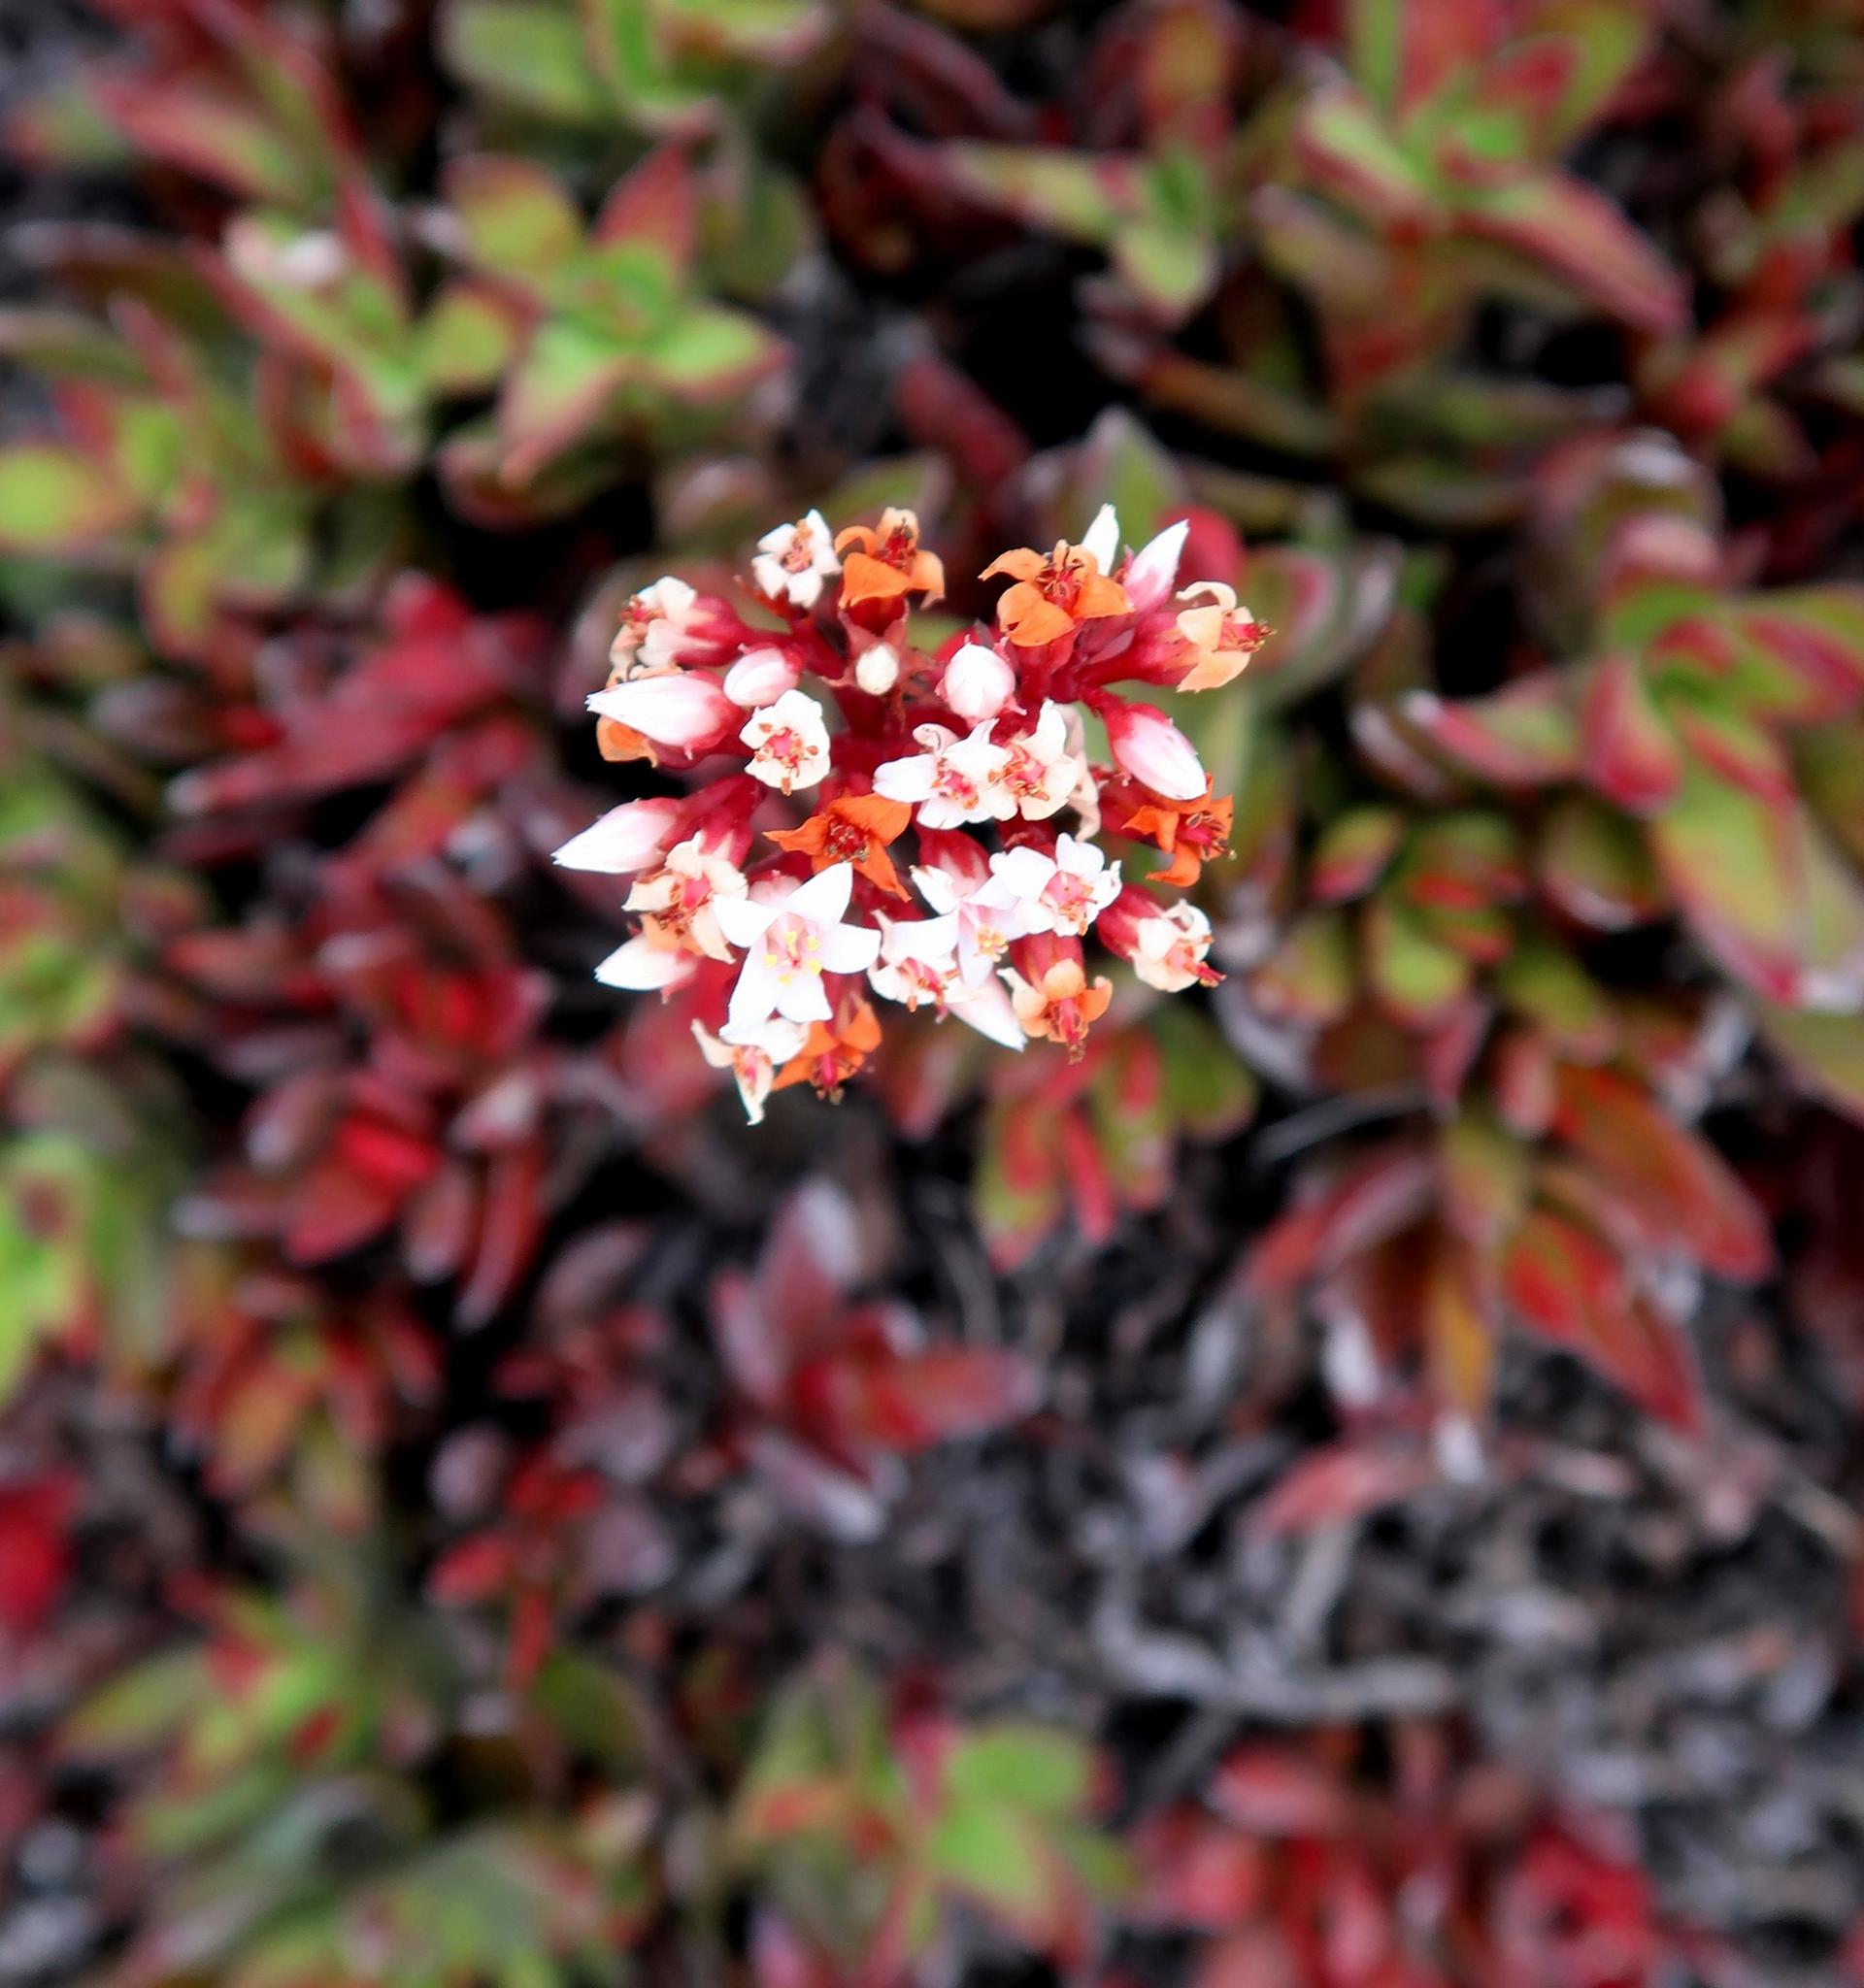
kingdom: Plantae
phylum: Tracheophyta
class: Magnoliopsida
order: Saxifragales
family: Crassulaceae
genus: Crassula
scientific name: Crassula rubricaulis
